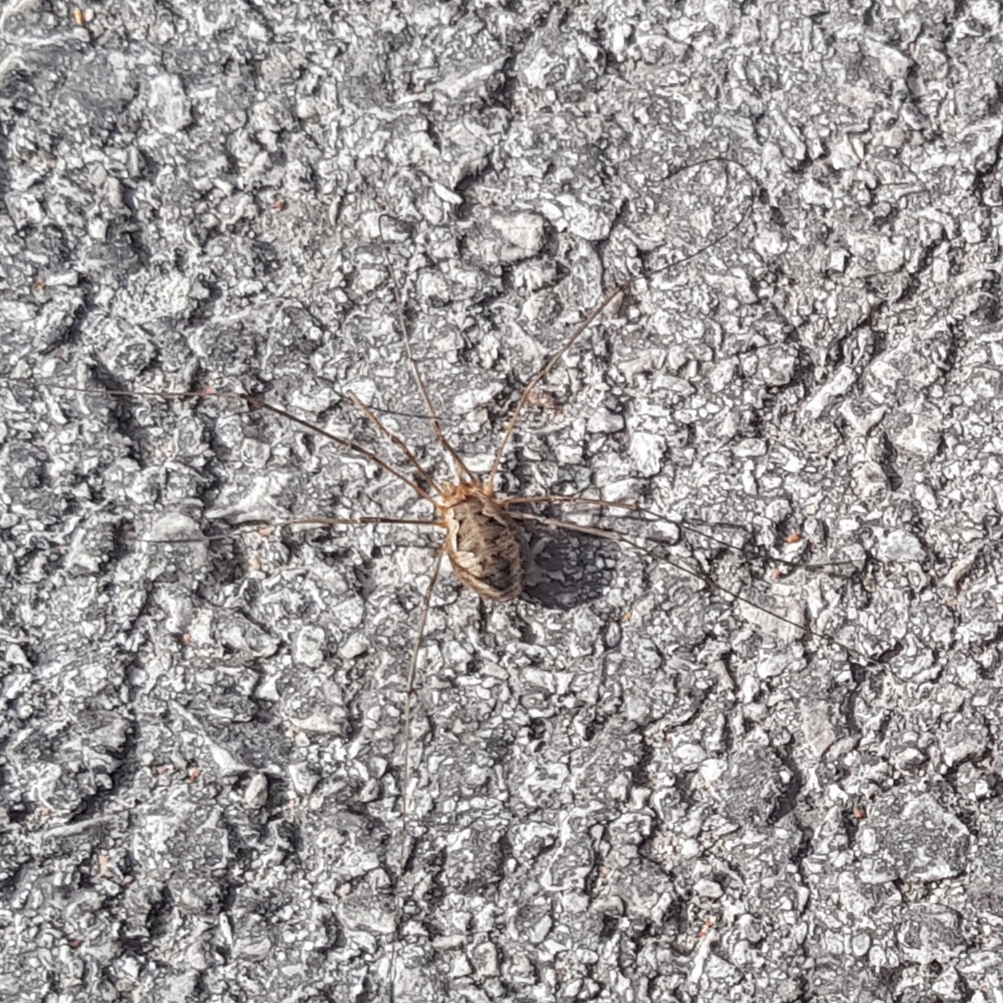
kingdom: Animalia
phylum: Arthropoda
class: Arachnida
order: Opiliones
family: Phalangiidae
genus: Phalangium
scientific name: Phalangium opilio
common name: Daddy longleg
